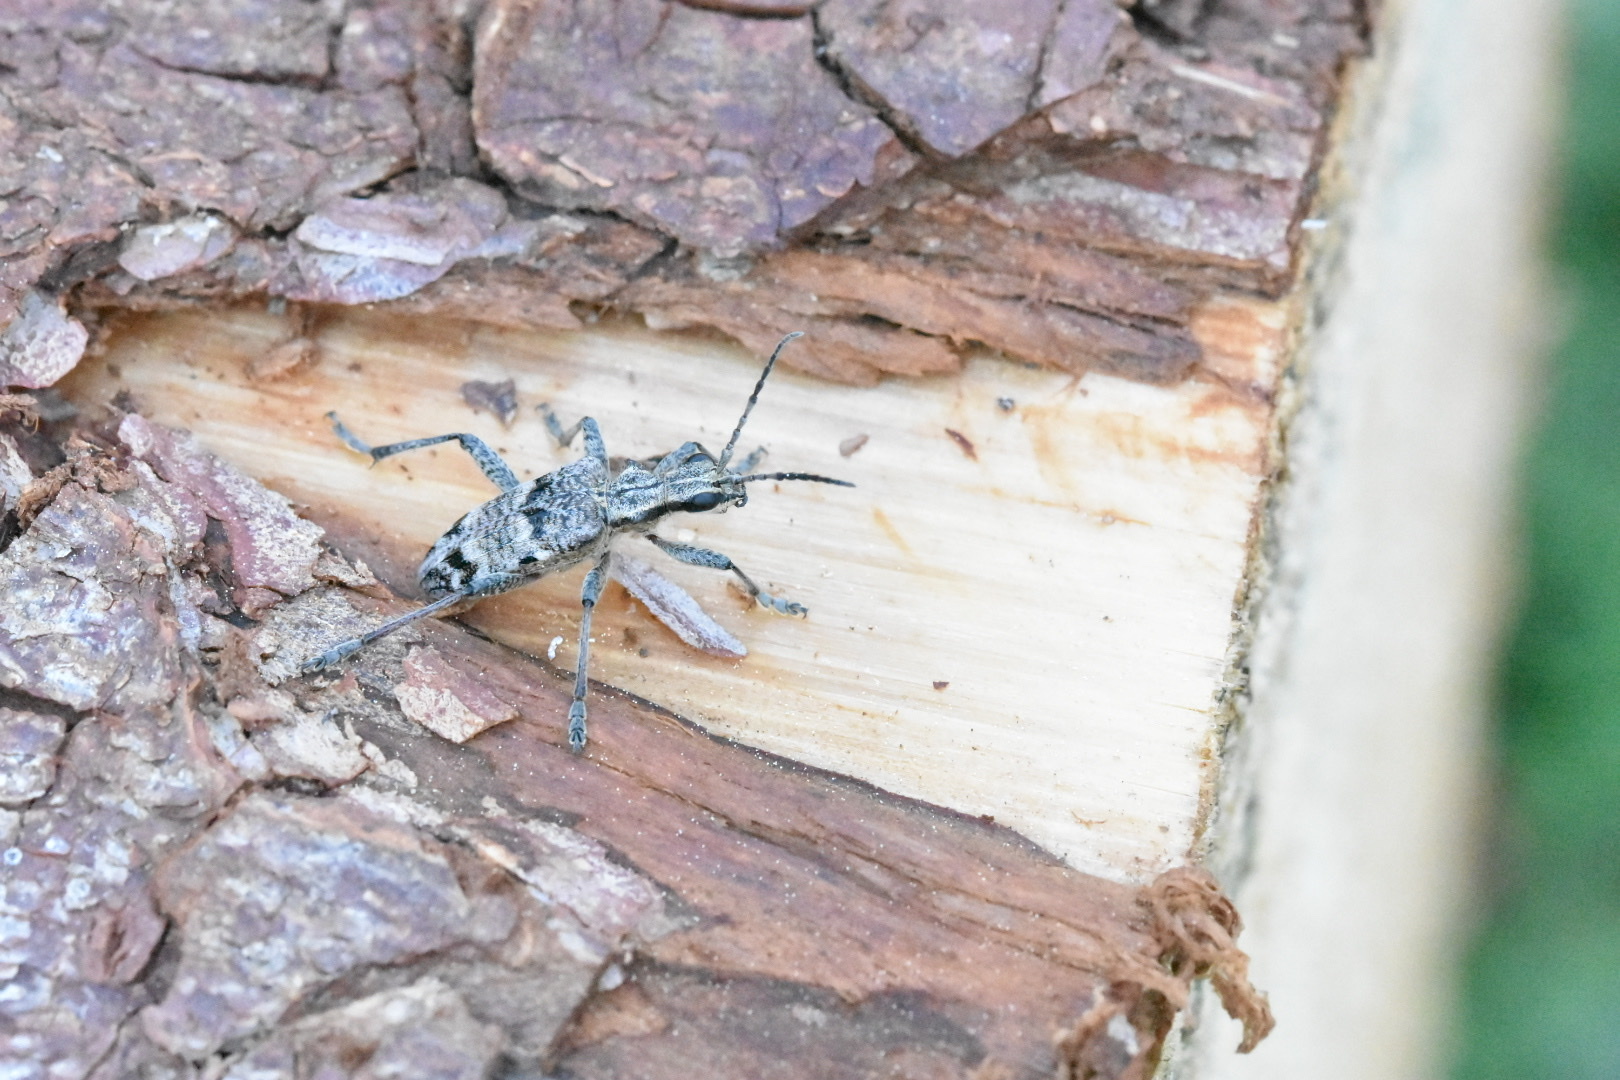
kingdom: Animalia
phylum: Arthropoda
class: Insecta
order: Coleoptera
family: Cerambycidae
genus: Rhagium
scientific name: Rhagium inquisitor
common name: Ribbed pine borer
